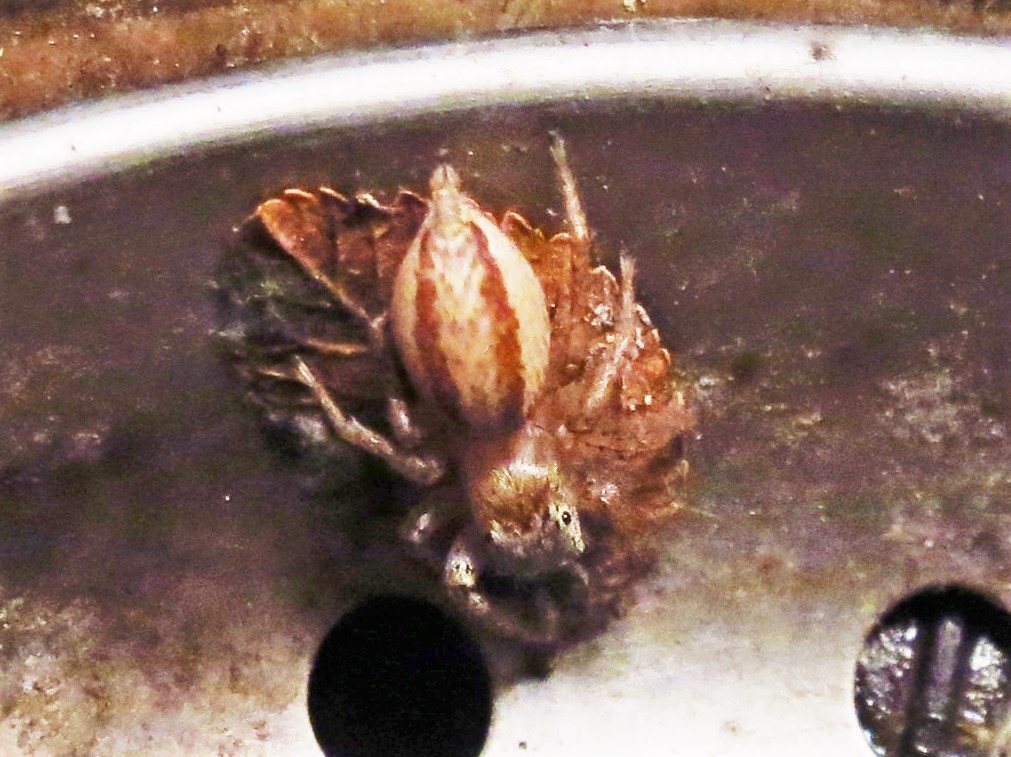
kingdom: Animalia
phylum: Arthropoda
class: Arachnida
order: Araneae
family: Salticidae
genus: Maevia
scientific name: Maevia inclemens
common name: Dimorphic jumper
